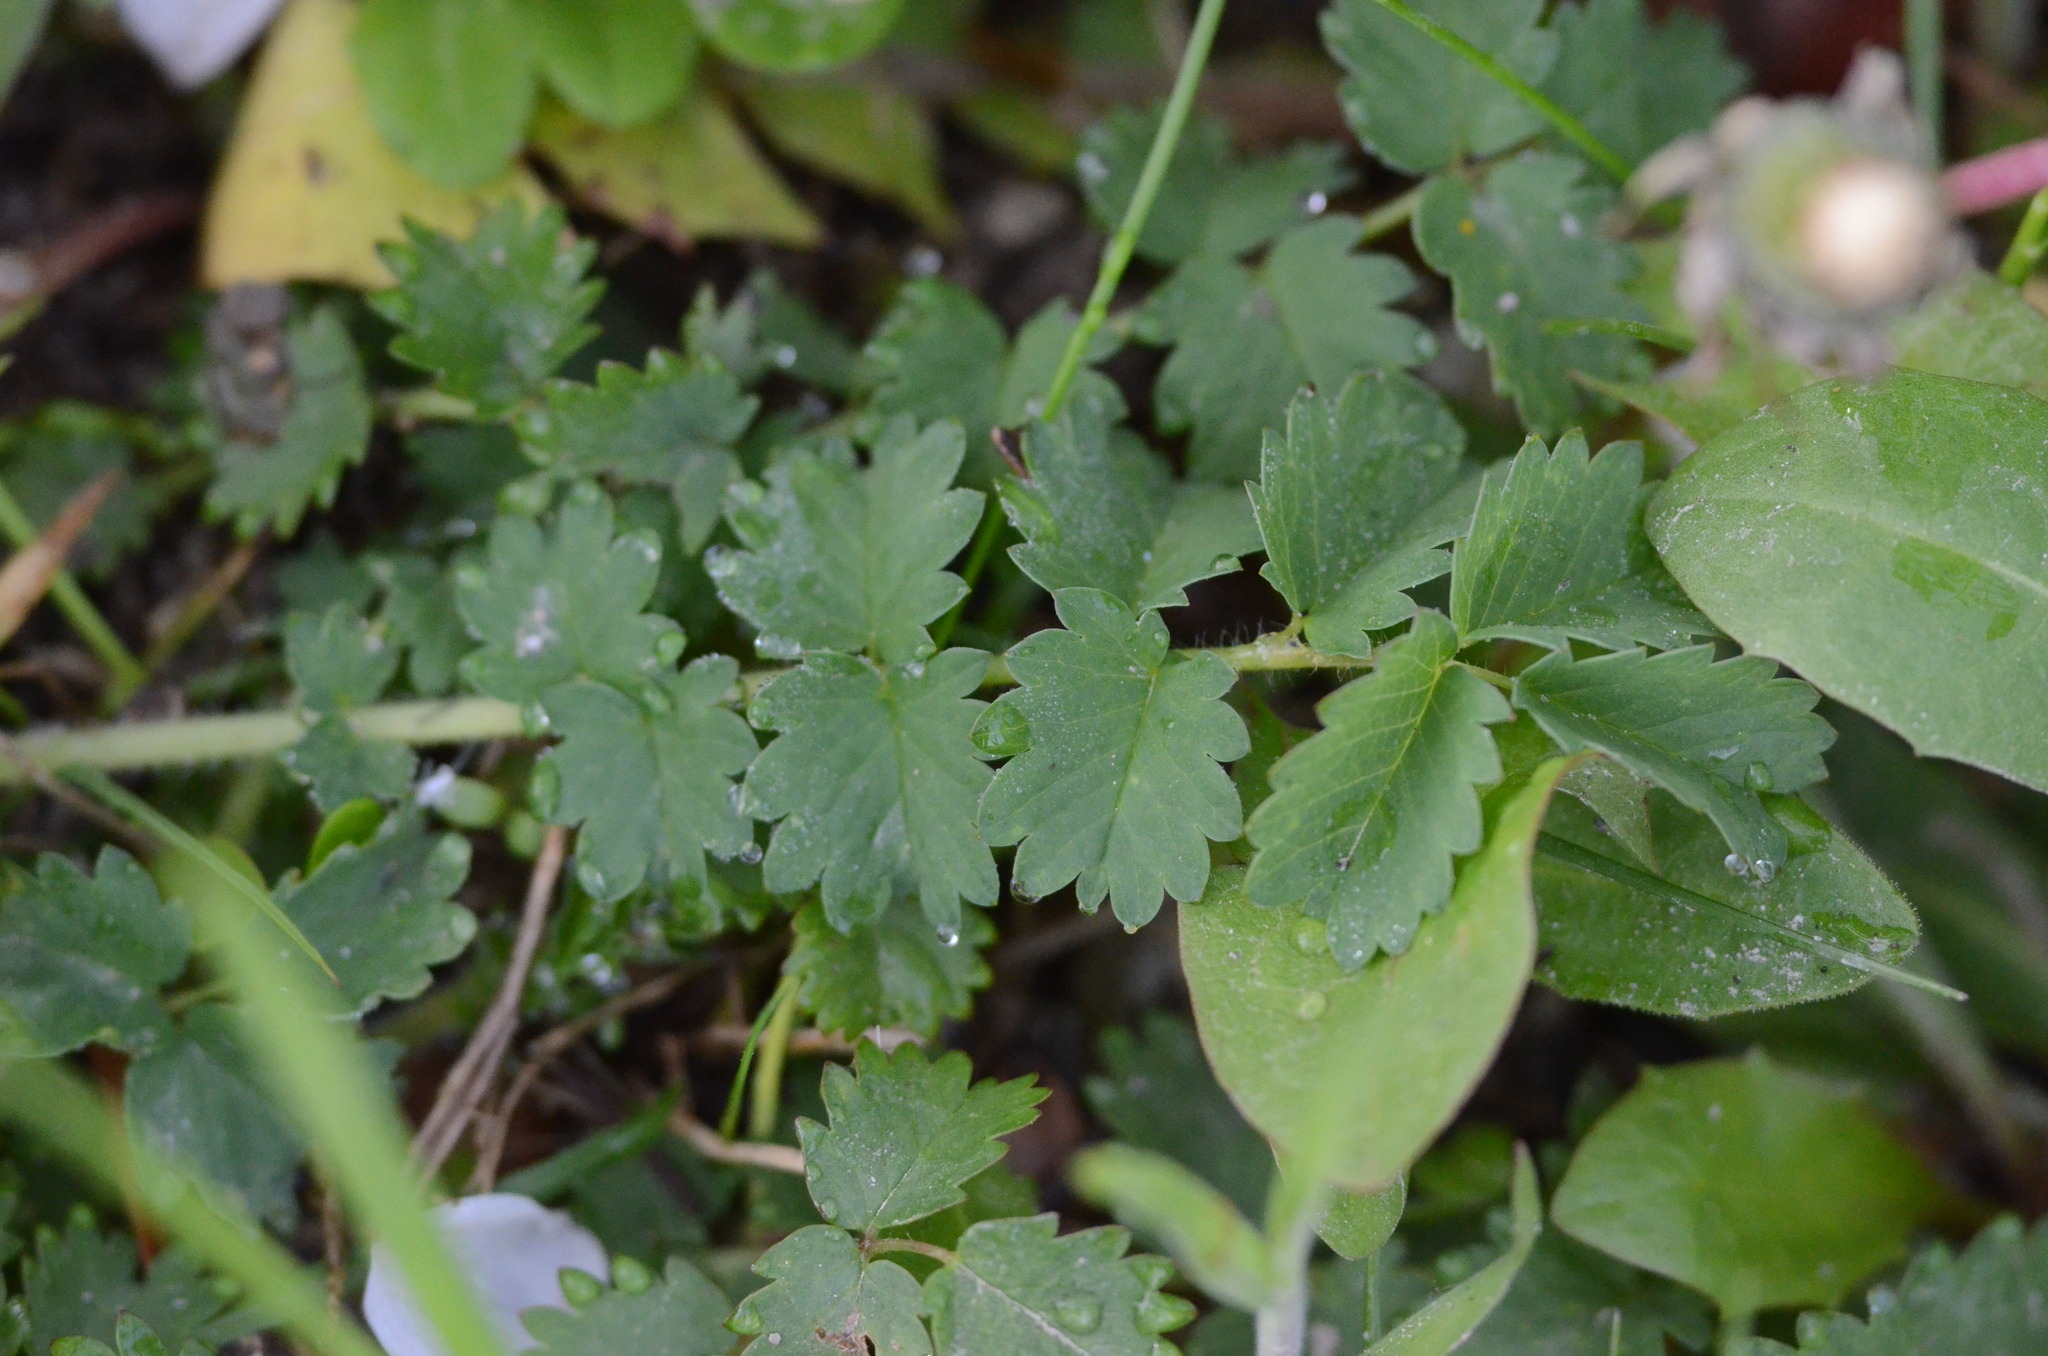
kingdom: Plantae
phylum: Tracheophyta
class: Magnoliopsida
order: Rosales
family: Rosaceae
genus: Poterium
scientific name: Poterium sanguisorba
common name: Salad burnet
